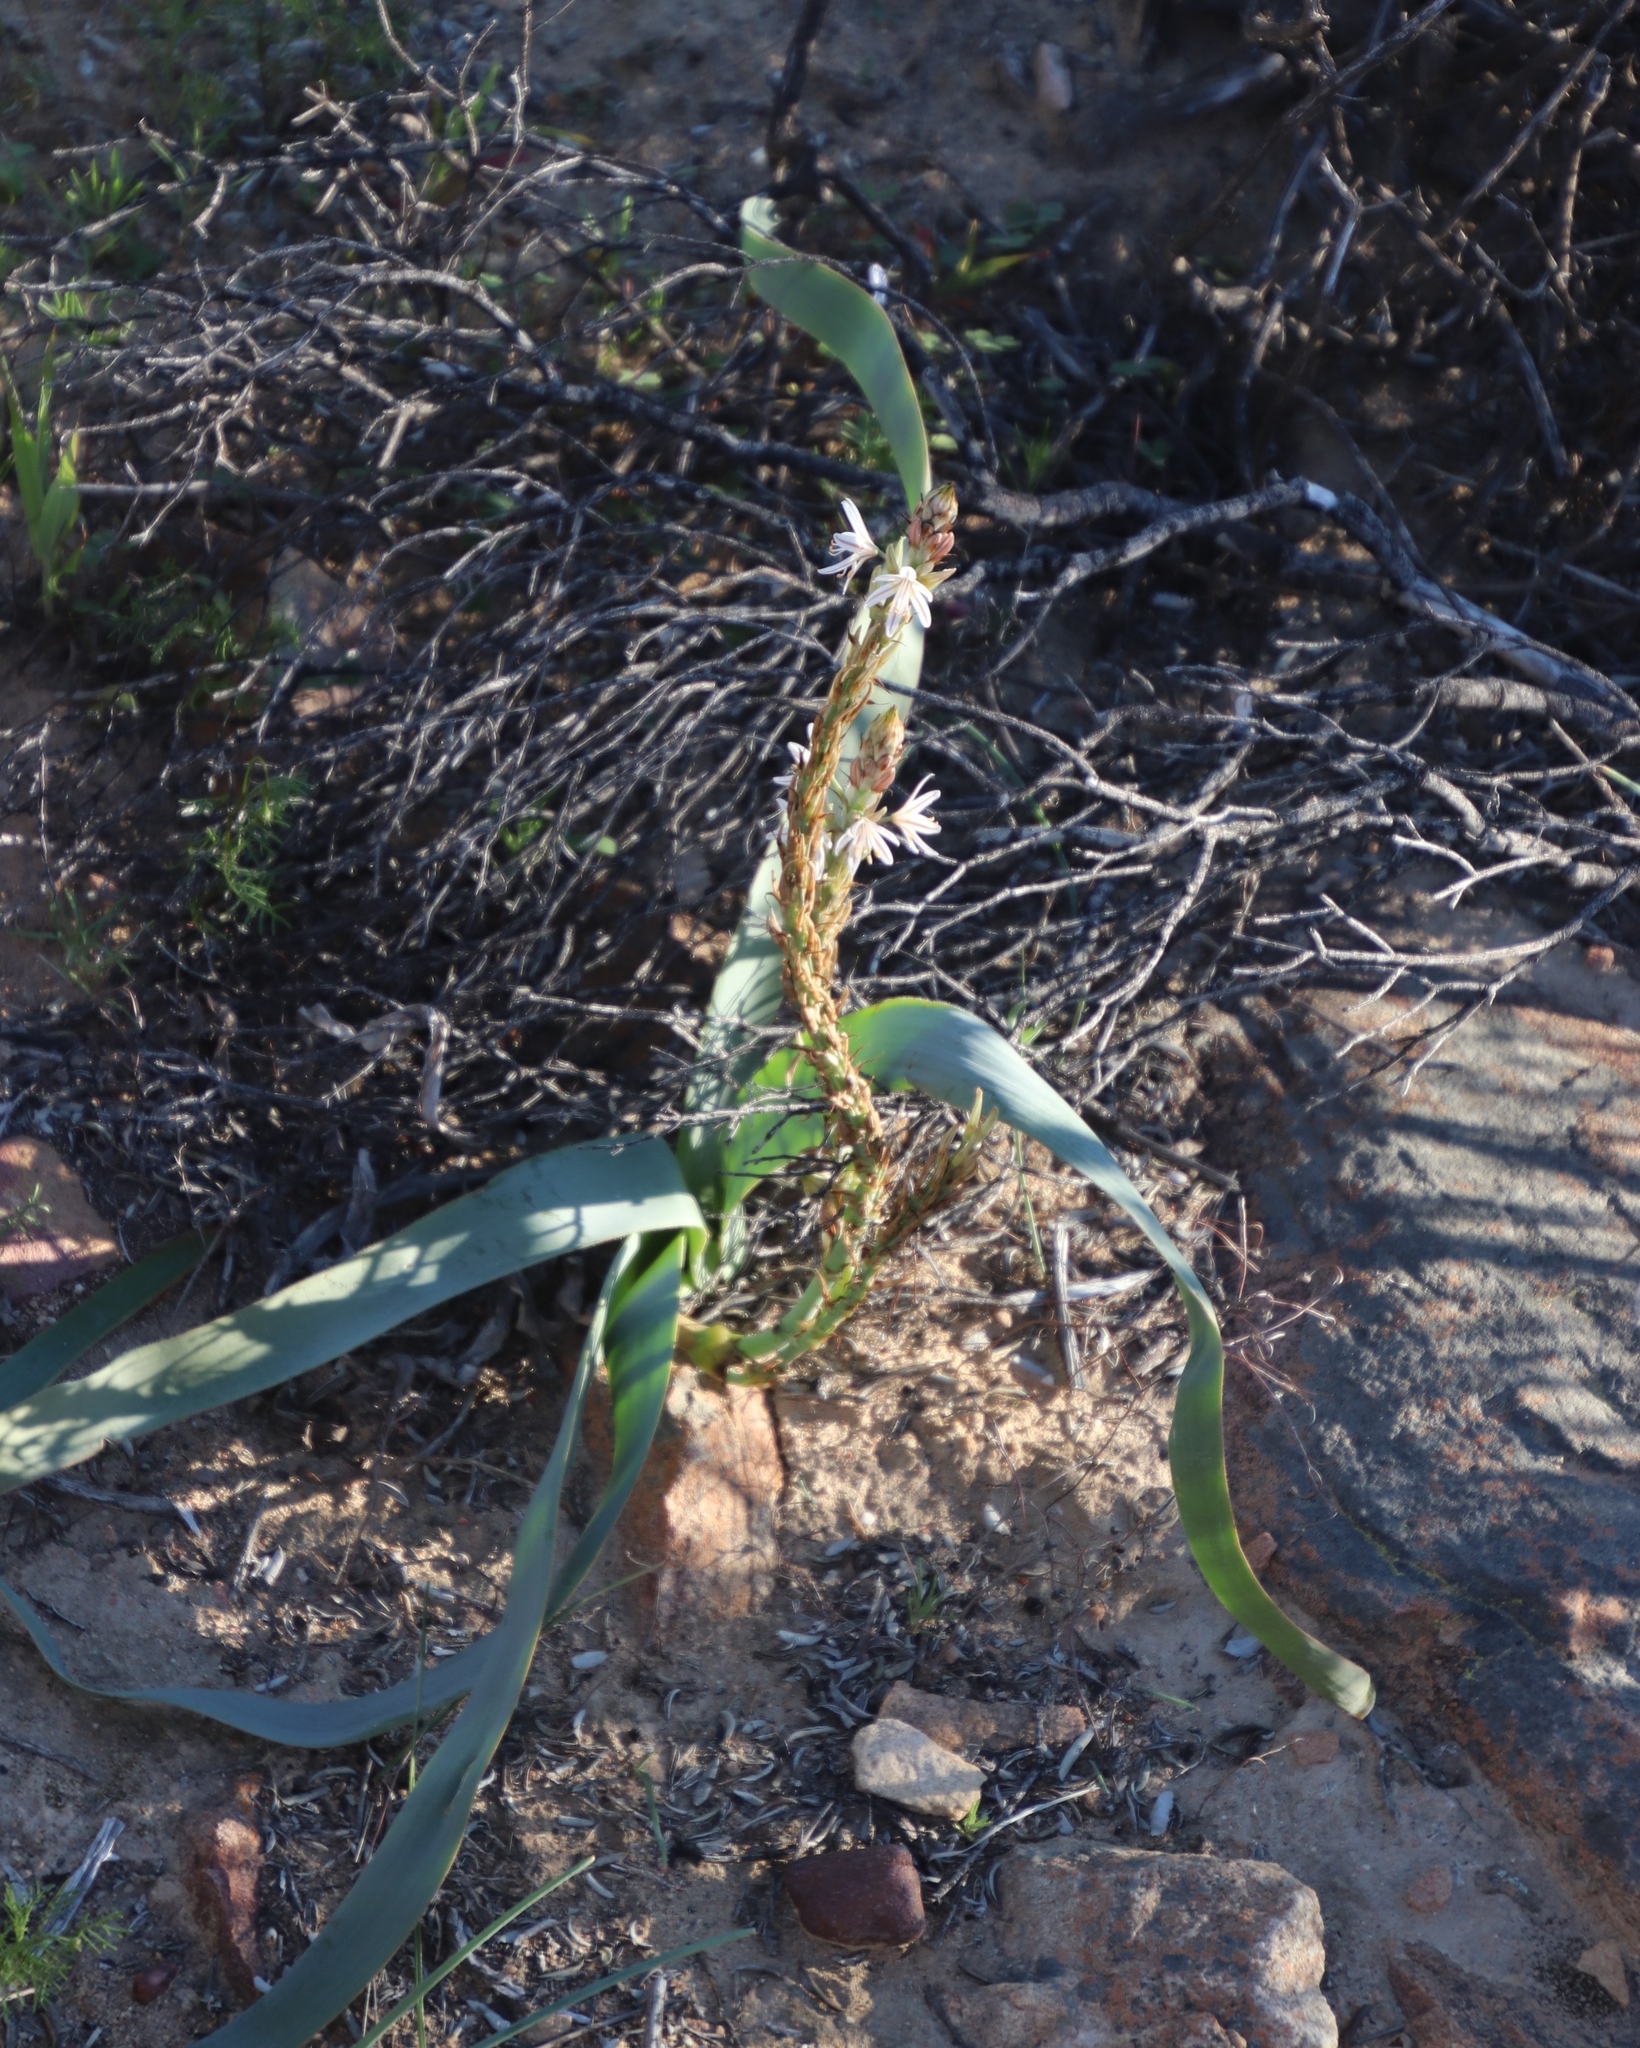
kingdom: Plantae
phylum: Tracheophyta
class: Liliopsida
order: Asparagales
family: Asphodelaceae
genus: Trachyandra
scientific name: Trachyandra falcata
